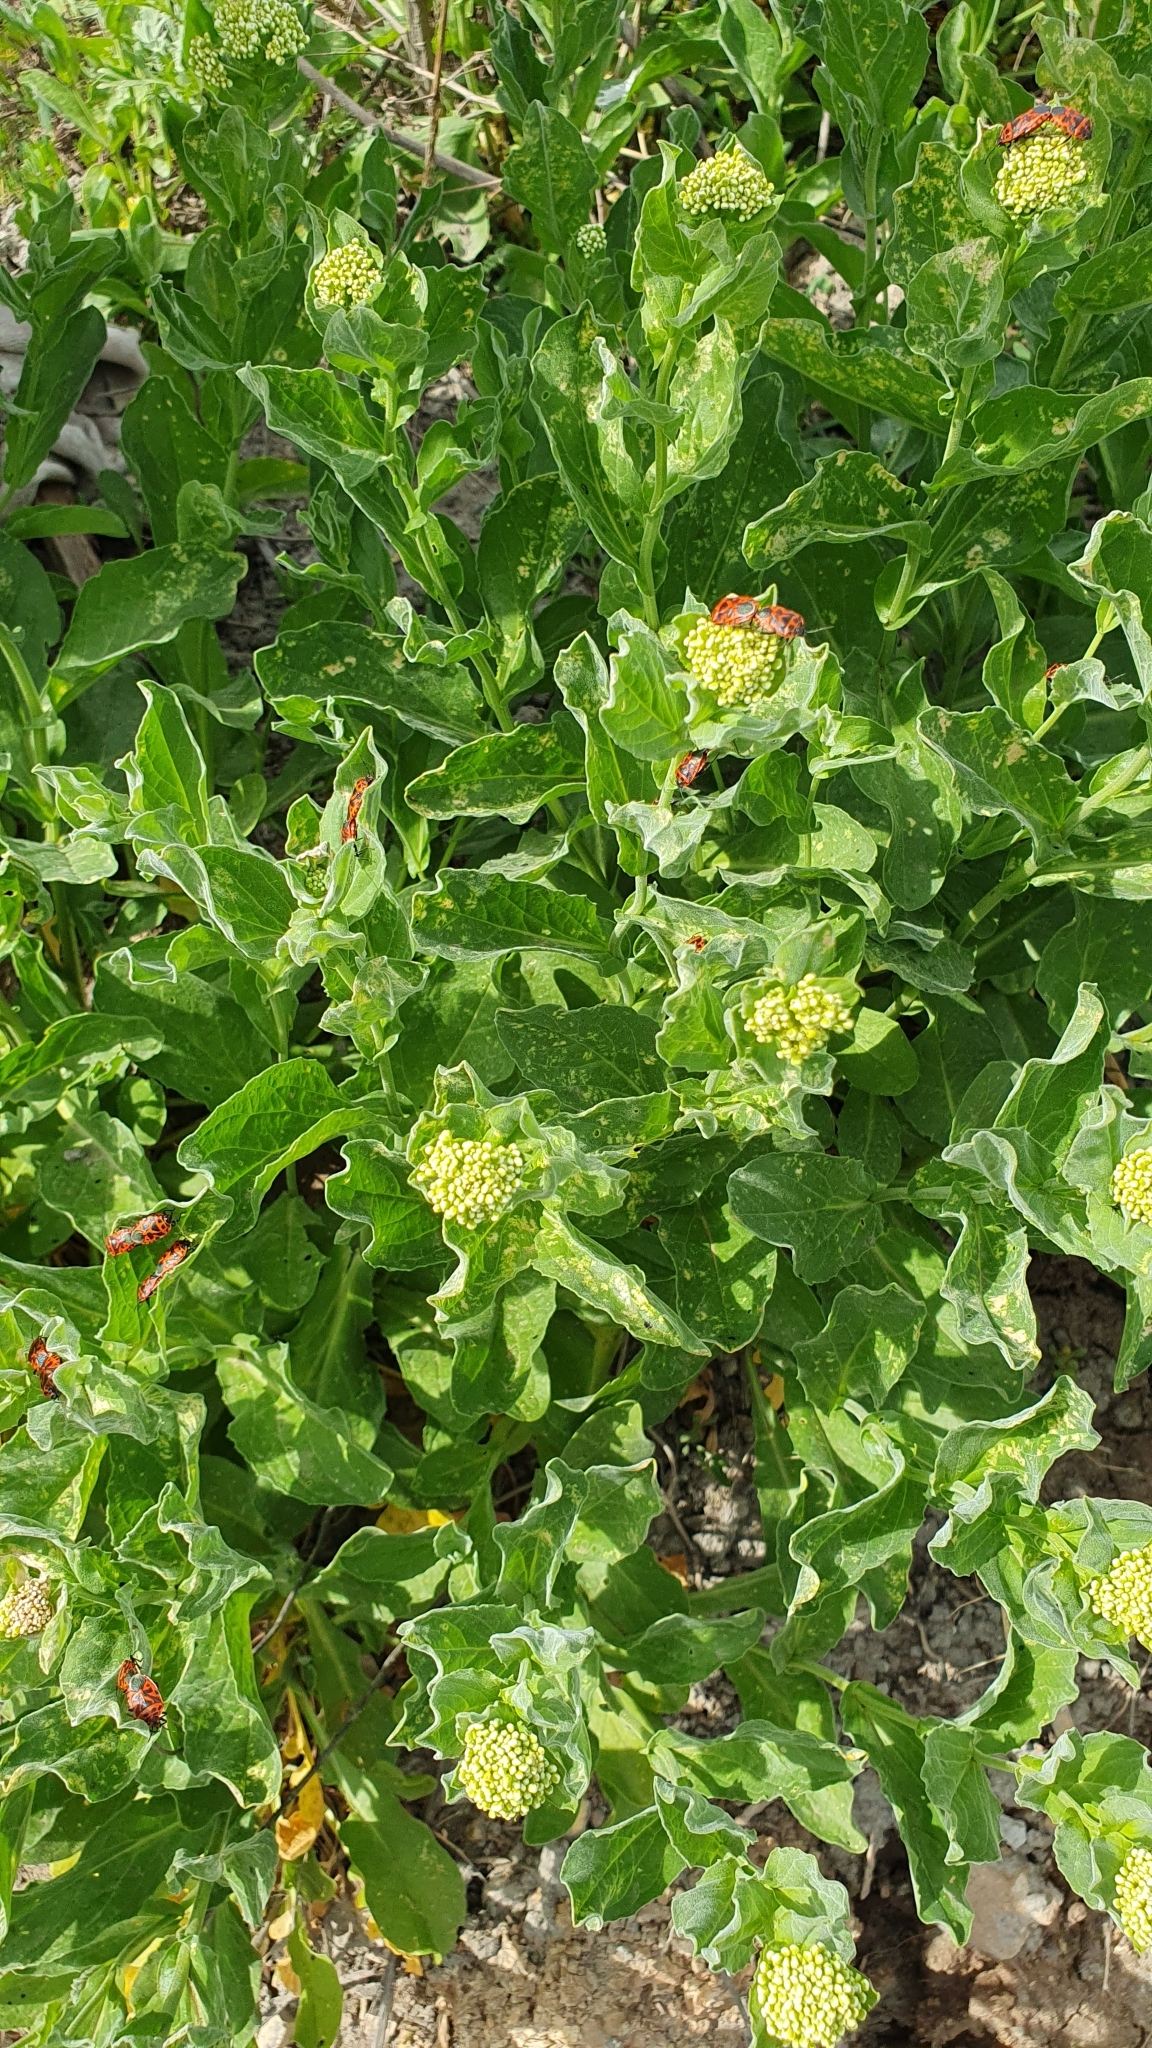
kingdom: Plantae
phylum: Tracheophyta
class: Magnoliopsida
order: Brassicales
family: Brassicaceae
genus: Lepidium
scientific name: Lepidium draba
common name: Hoary cress
